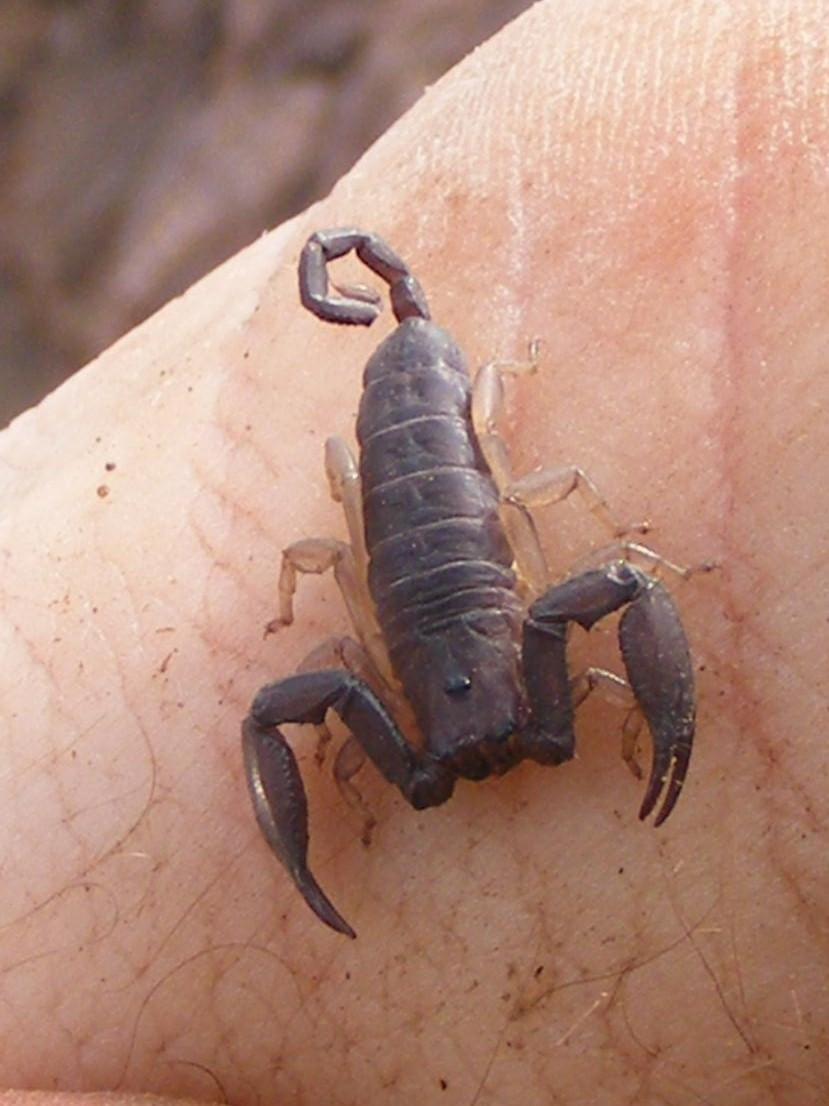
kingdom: Animalia
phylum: Arthropoda
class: Arachnida
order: Scorpiones
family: Hormuridae
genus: Hadogenes
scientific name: Hadogenes troglodytes
